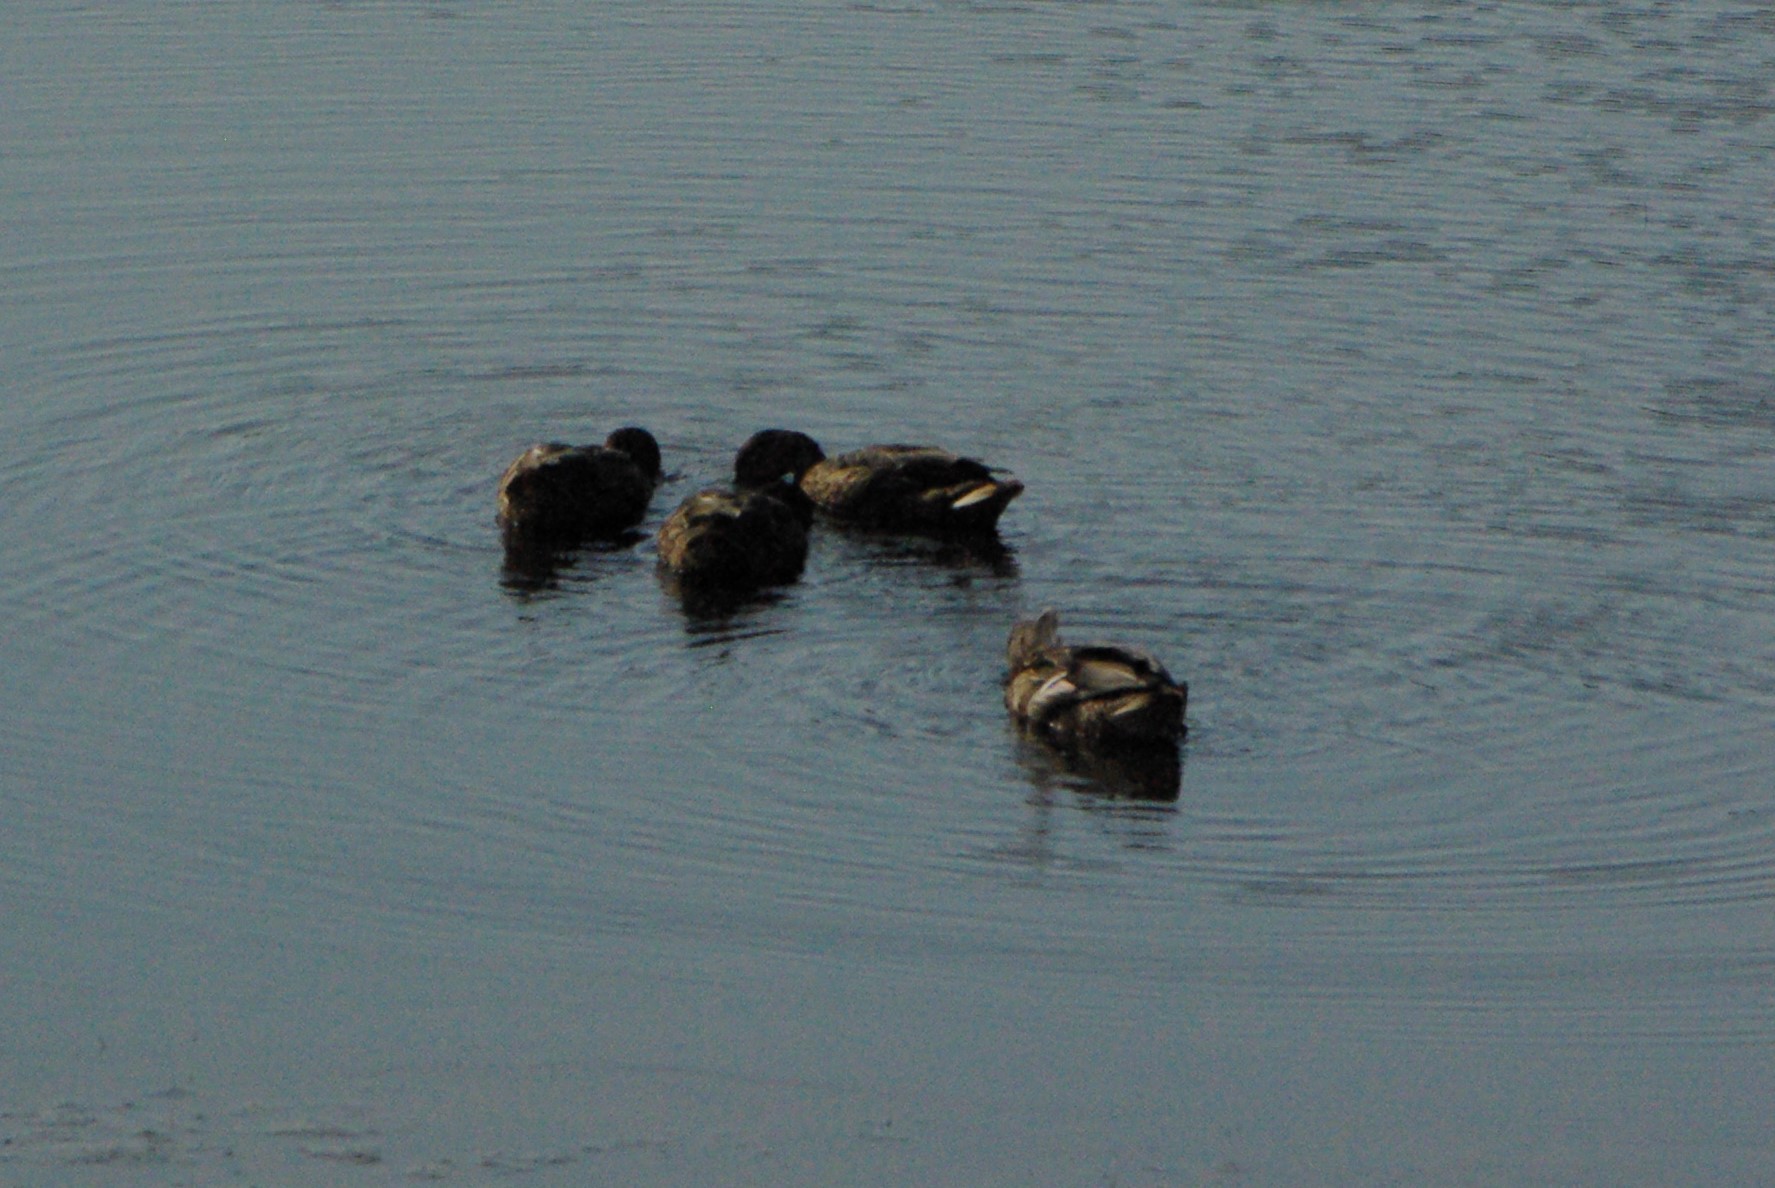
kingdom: Animalia
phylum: Chordata
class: Aves
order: Anseriformes
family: Anatidae
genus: Anas
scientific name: Anas platyrhynchos
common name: Mallard
